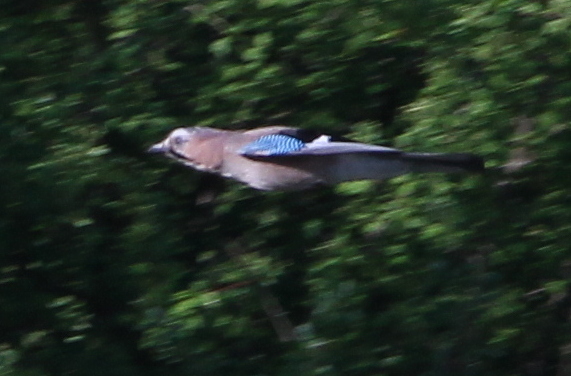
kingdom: Animalia
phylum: Chordata
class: Aves
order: Passeriformes
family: Corvidae
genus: Garrulus
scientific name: Garrulus glandarius
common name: Eurasian jay
